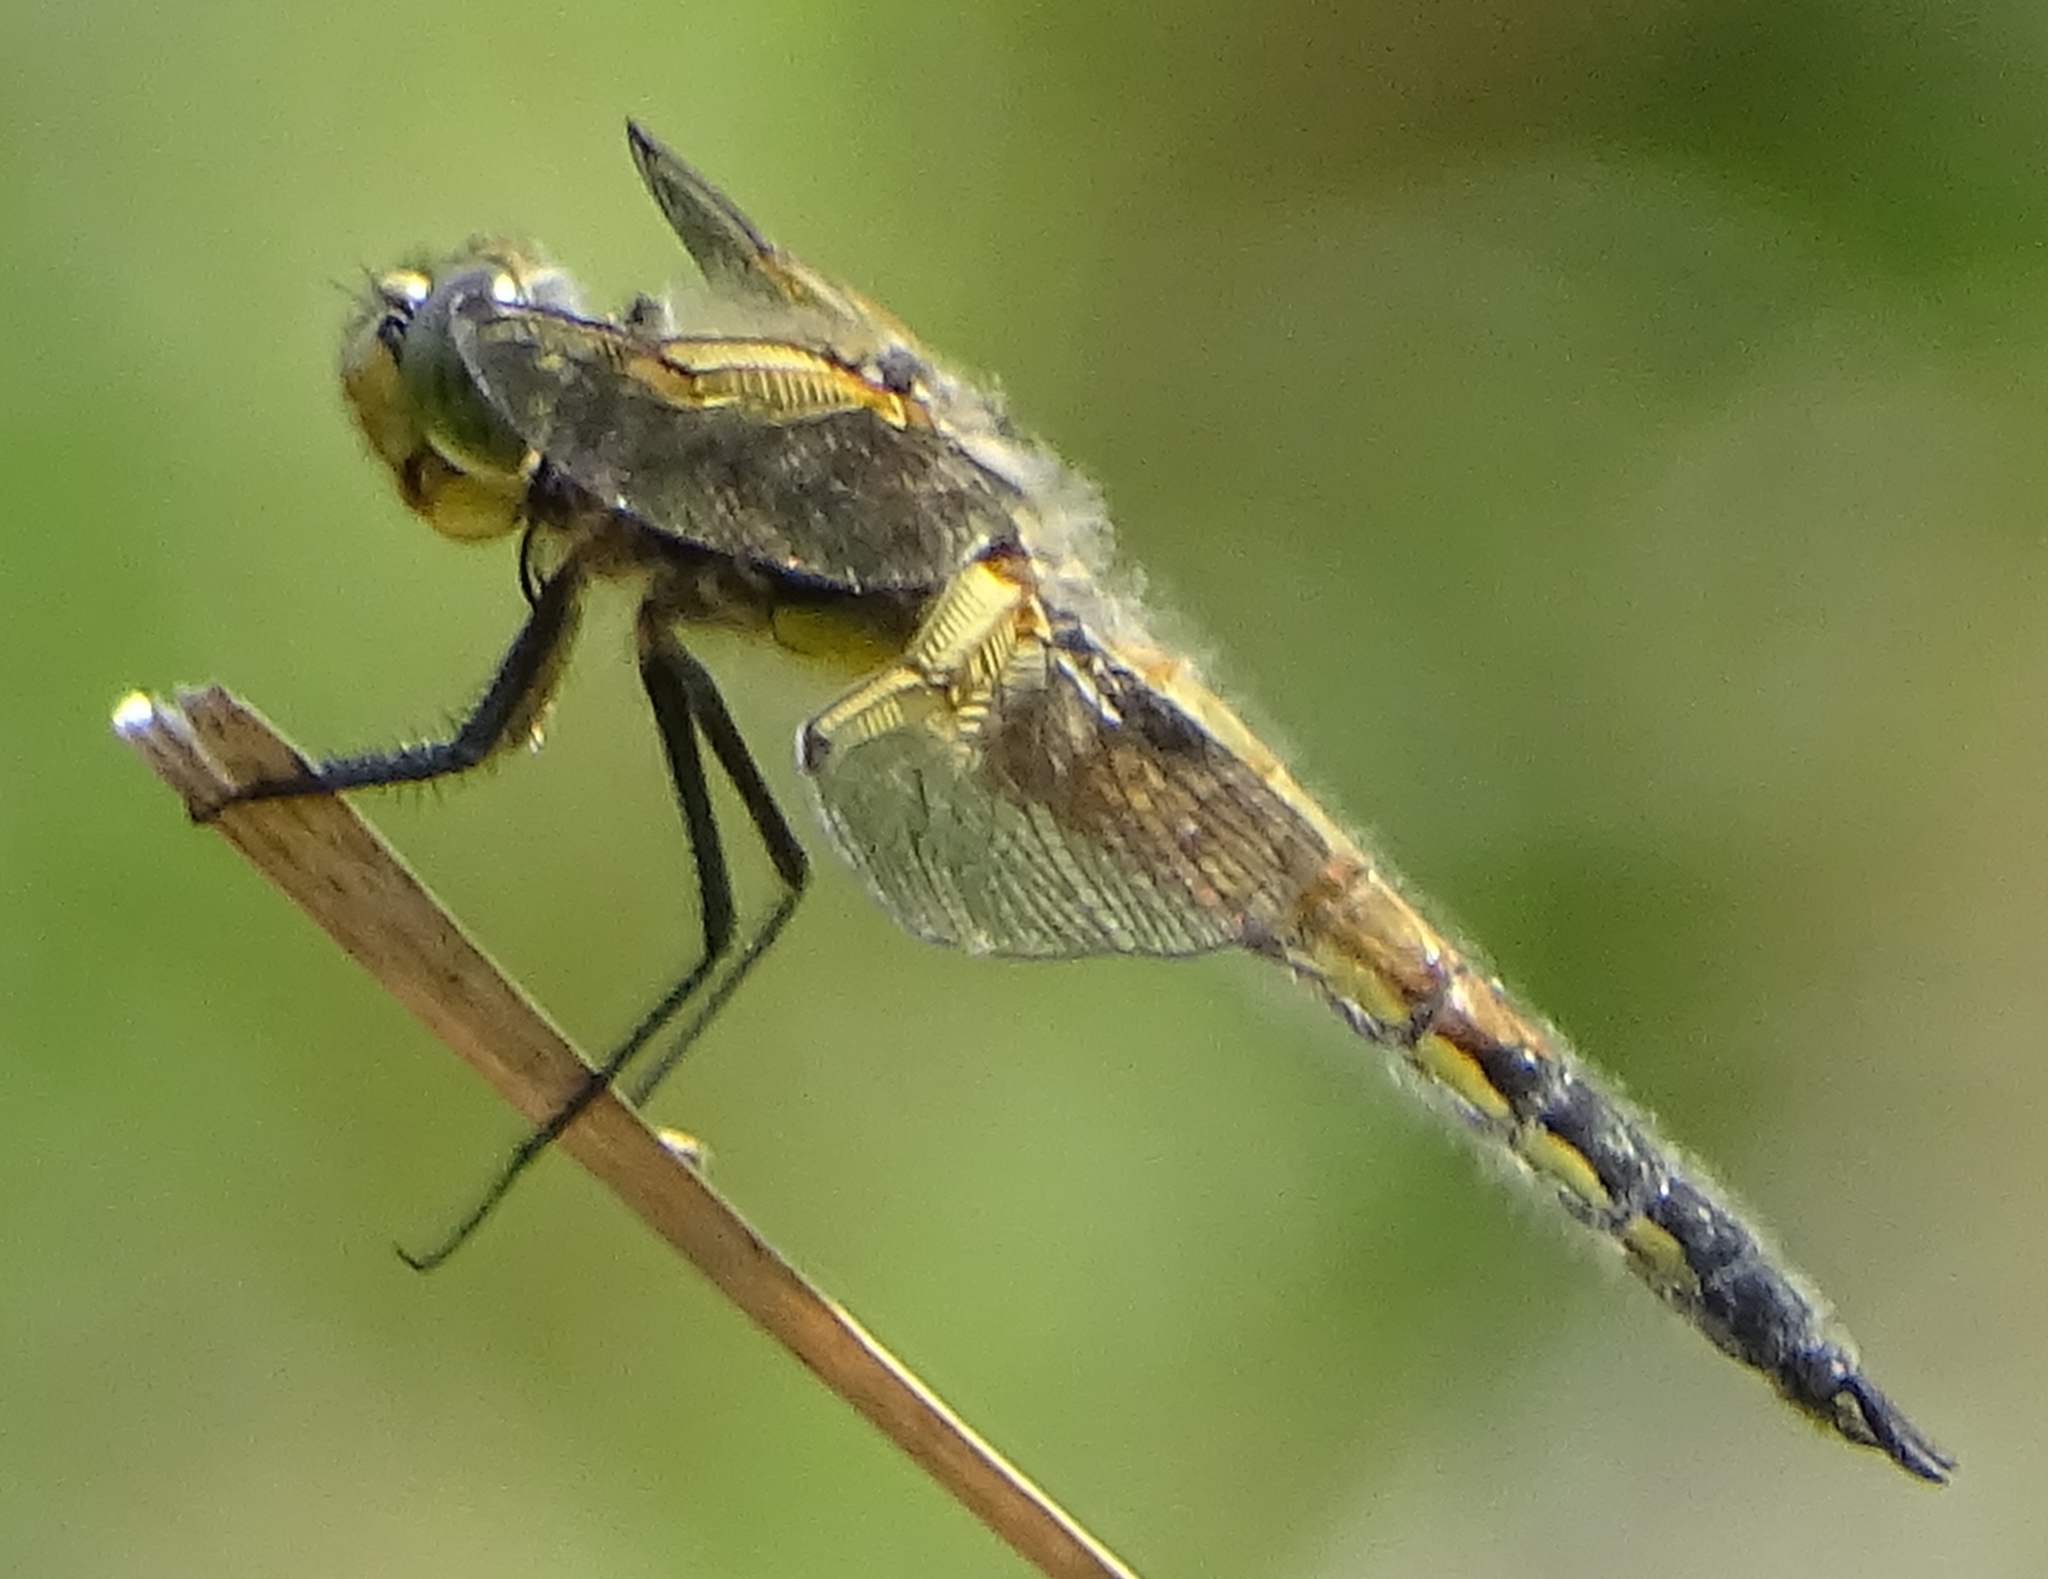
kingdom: Animalia
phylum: Arthropoda
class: Insecta
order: Odonata
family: Libellulidae
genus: Libellula
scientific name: Libellula quadrimaculata
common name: Four-spotted chaser
